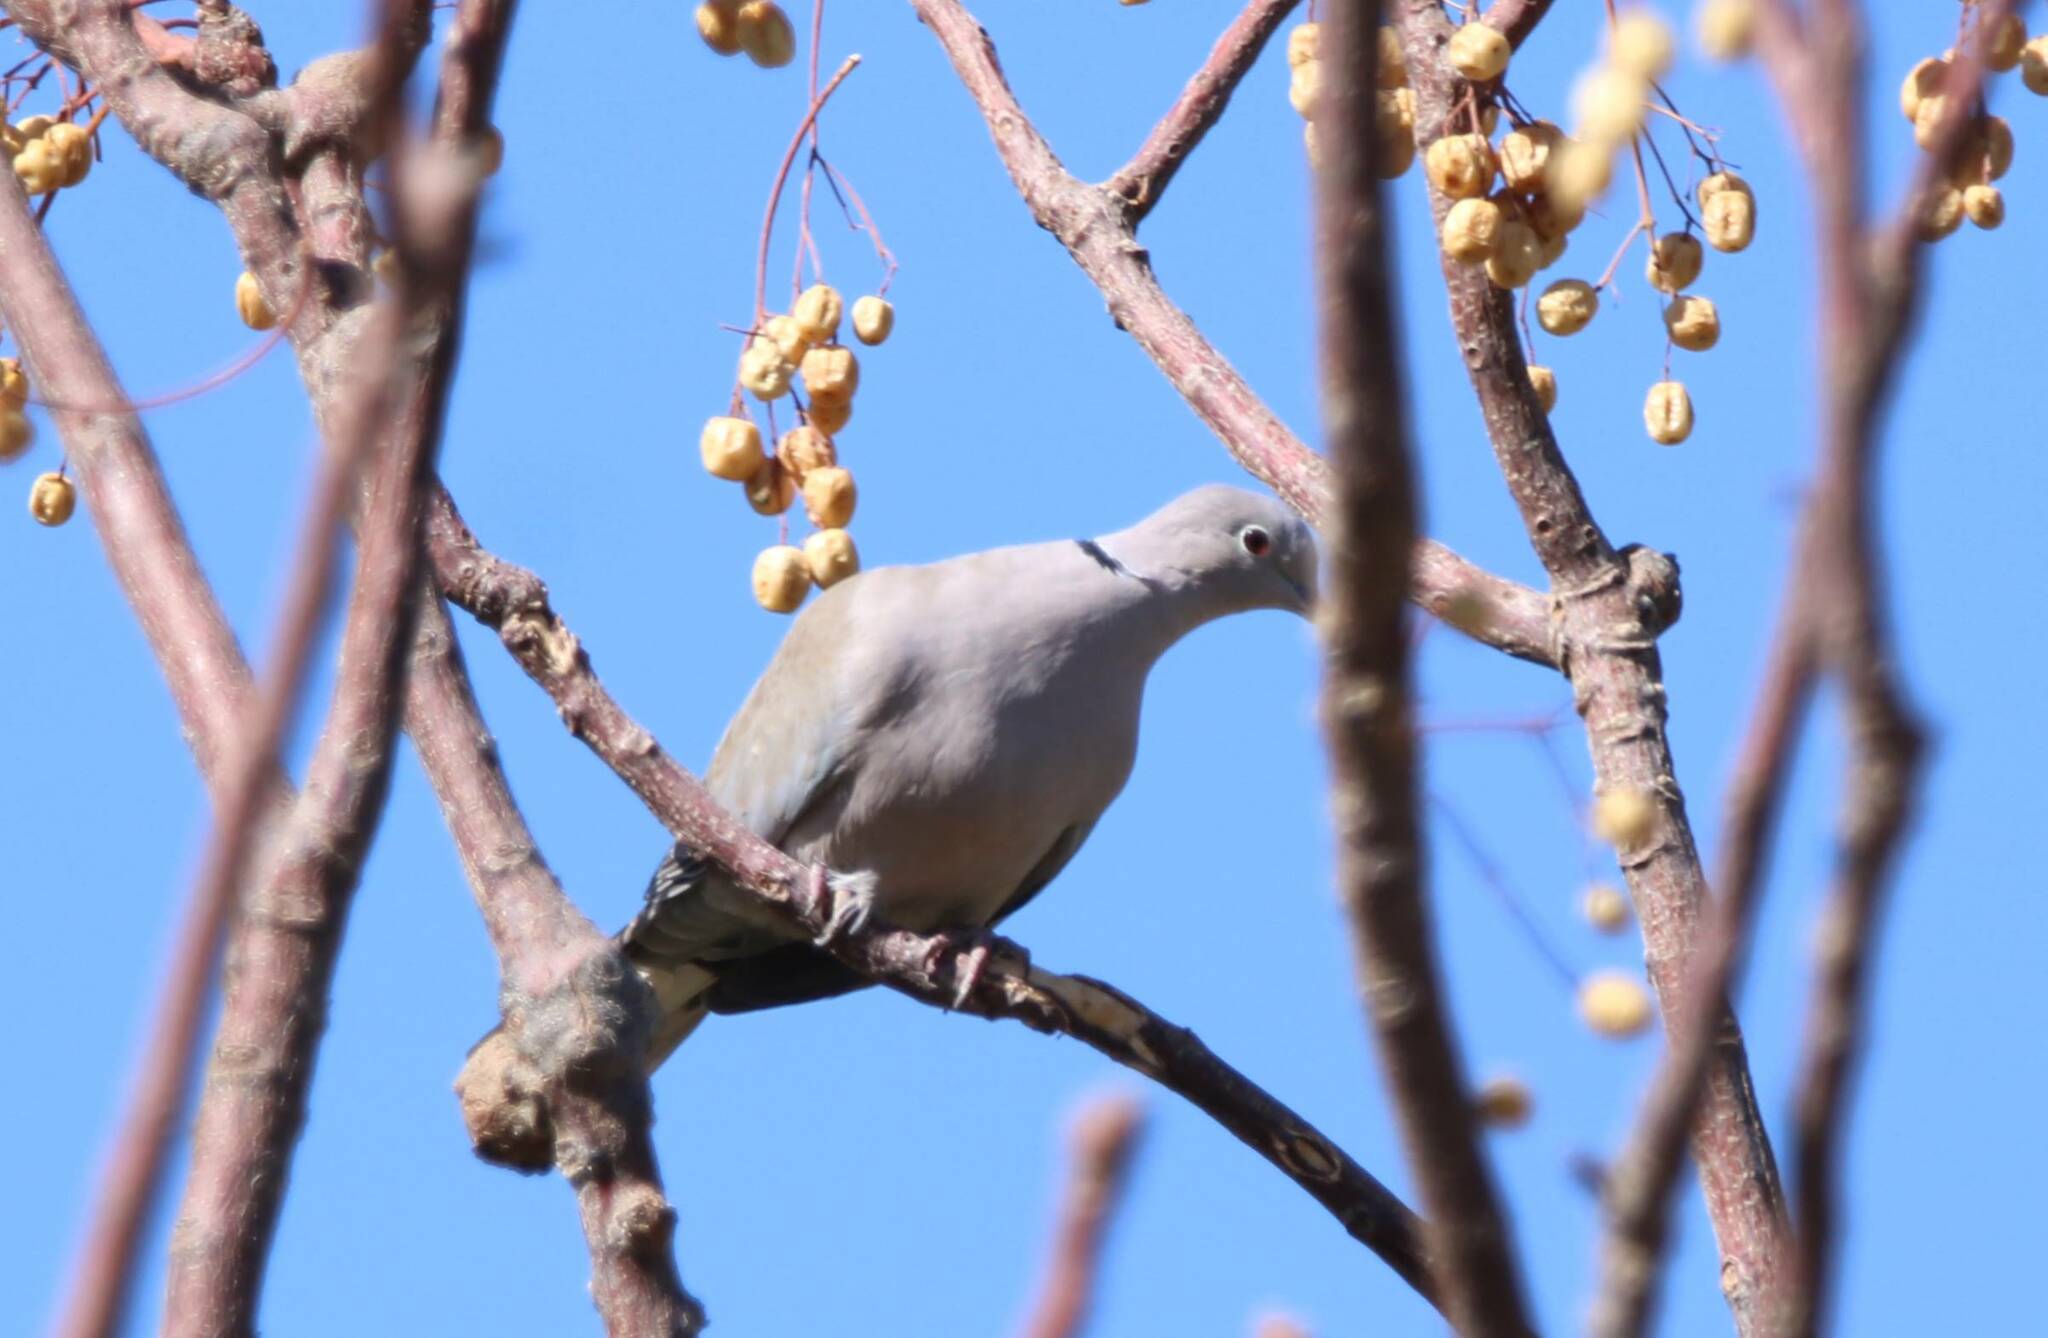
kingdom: Animalia
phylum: Chordata
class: Aves
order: Columbiformes
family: Columbidae
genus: Streptopelia
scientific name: Streptopelia decaocto
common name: Eurasian collared dove
